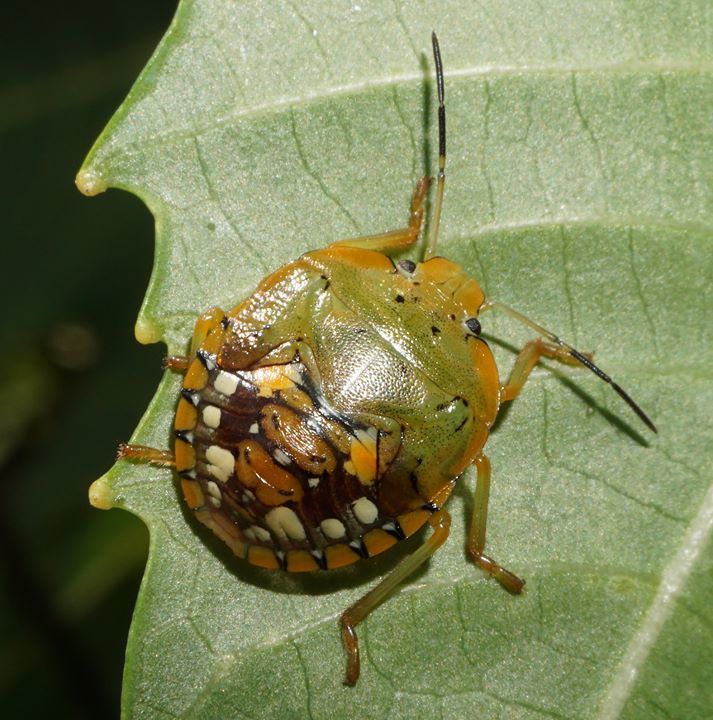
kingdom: Animalia
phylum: Arthropoda
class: Insecta
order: Hemiptera
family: Pentatomidae
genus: Acrosternum
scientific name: Acrosternum marginatum
